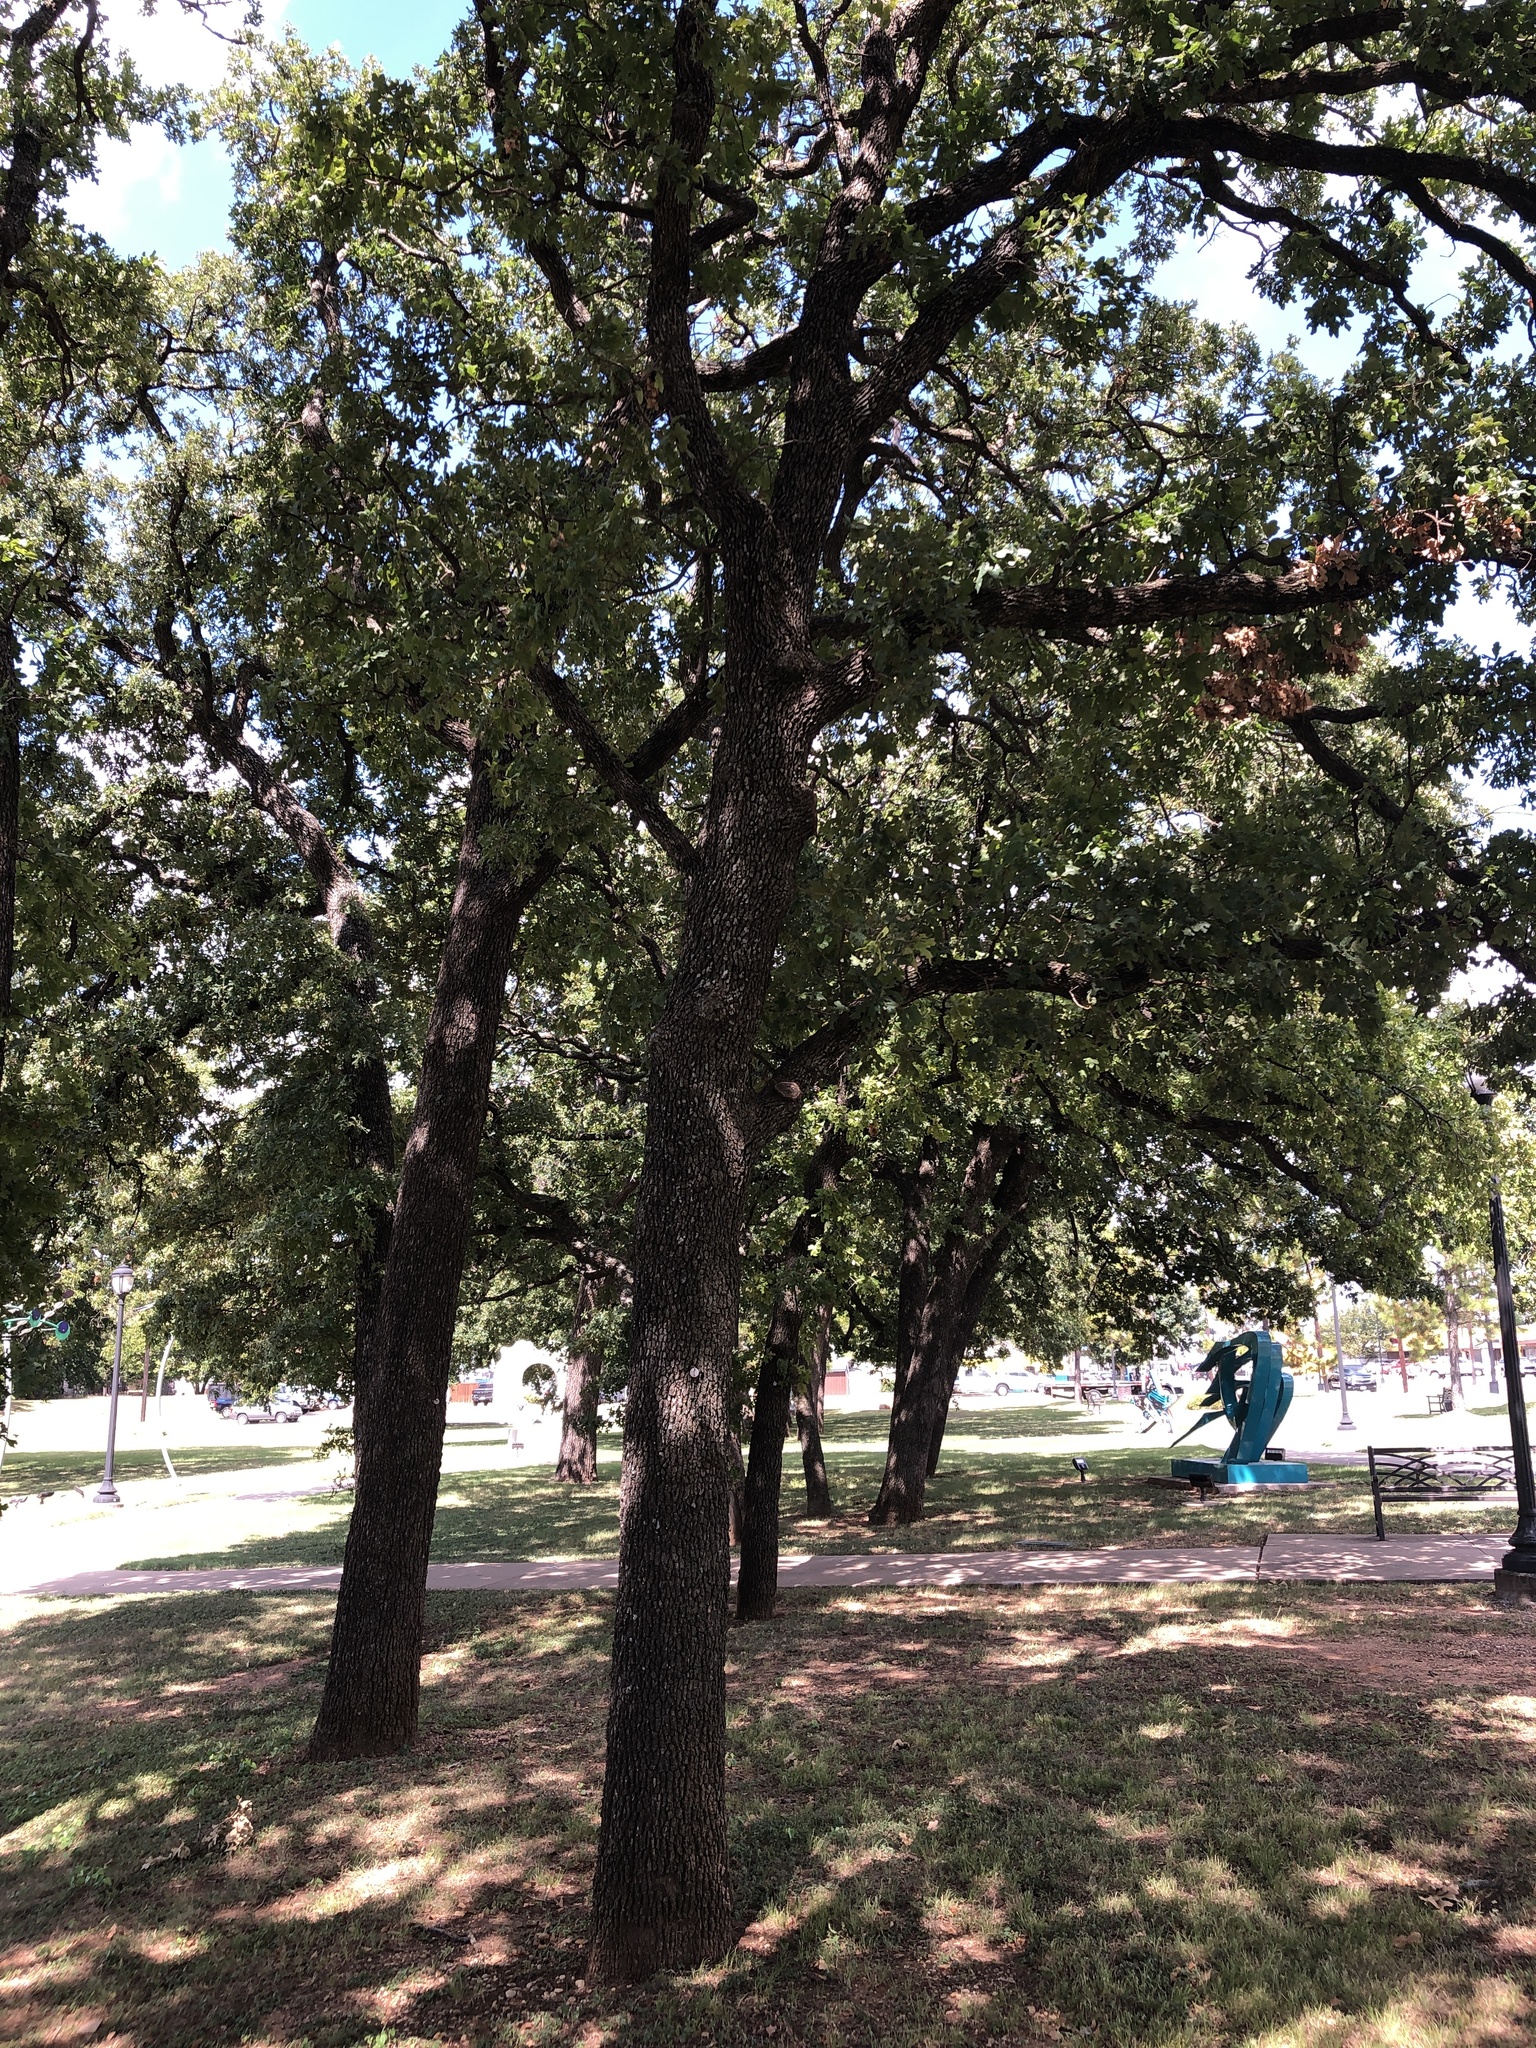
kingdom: Plantae
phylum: Tracheophyta
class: Magnoliopsida
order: Fagales
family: Fagaceae
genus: Quercus
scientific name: Quercus stellata
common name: Post oak
